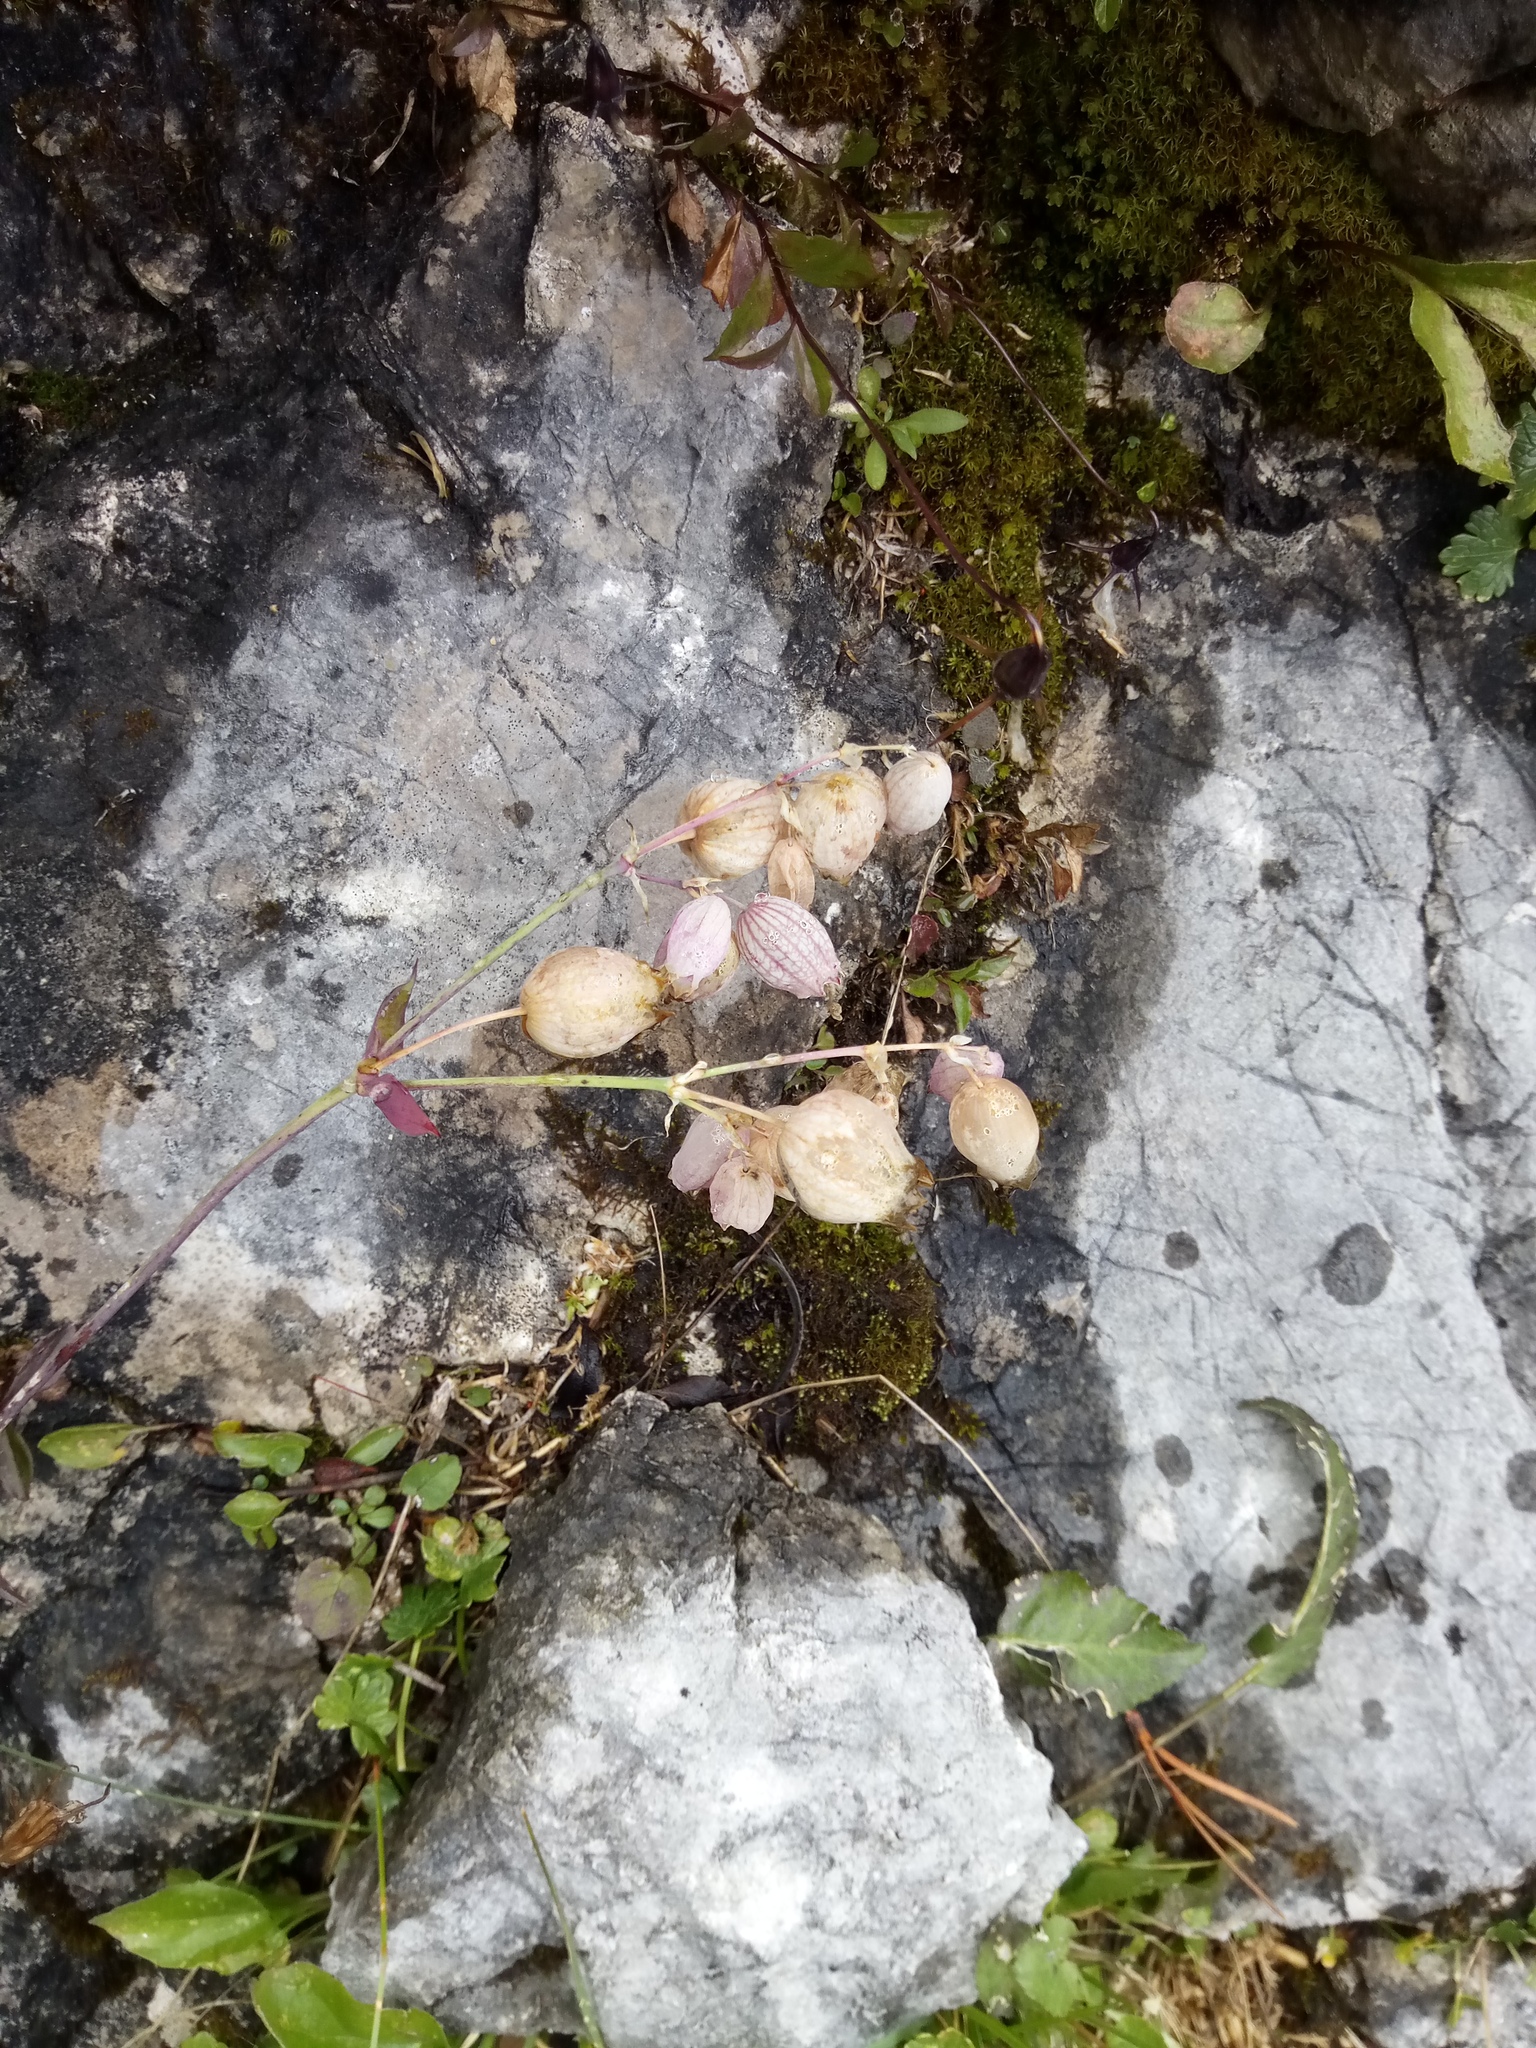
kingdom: Plantae
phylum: Tracheophyta
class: Magnoliopsida
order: Caryophyllales
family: Caryophyllaceae
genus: Silene
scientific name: Silene vulgaris
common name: Bladder campion
